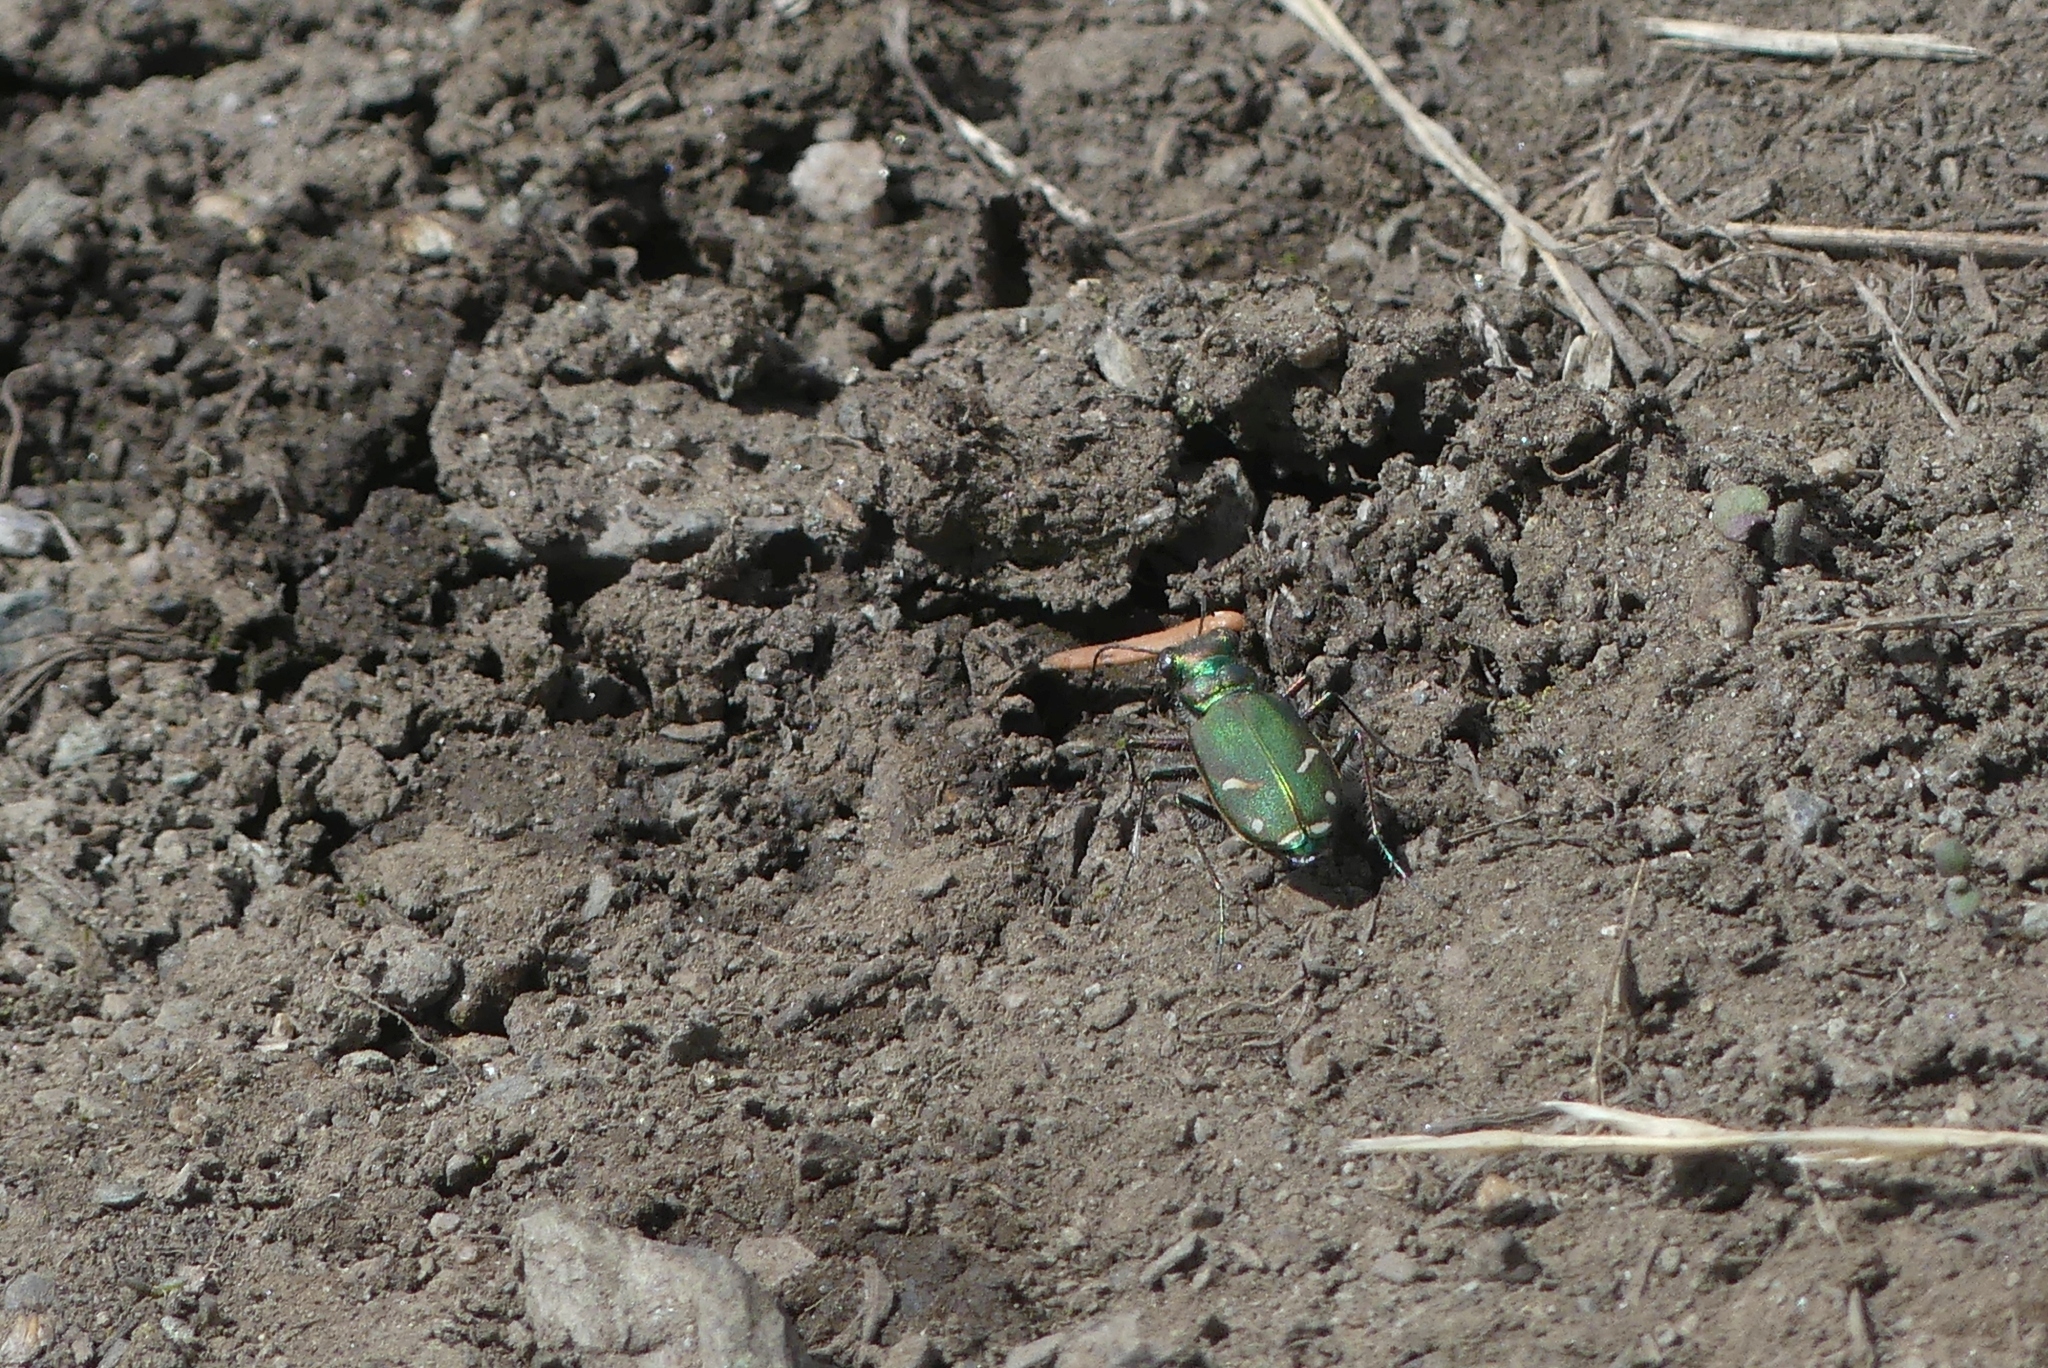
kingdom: Animalia
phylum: Arthropoda
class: Insecta
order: Coleoptera
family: Carabidae
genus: Cicindela
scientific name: Cicindela purpurea
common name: Cow path tiger beetle
